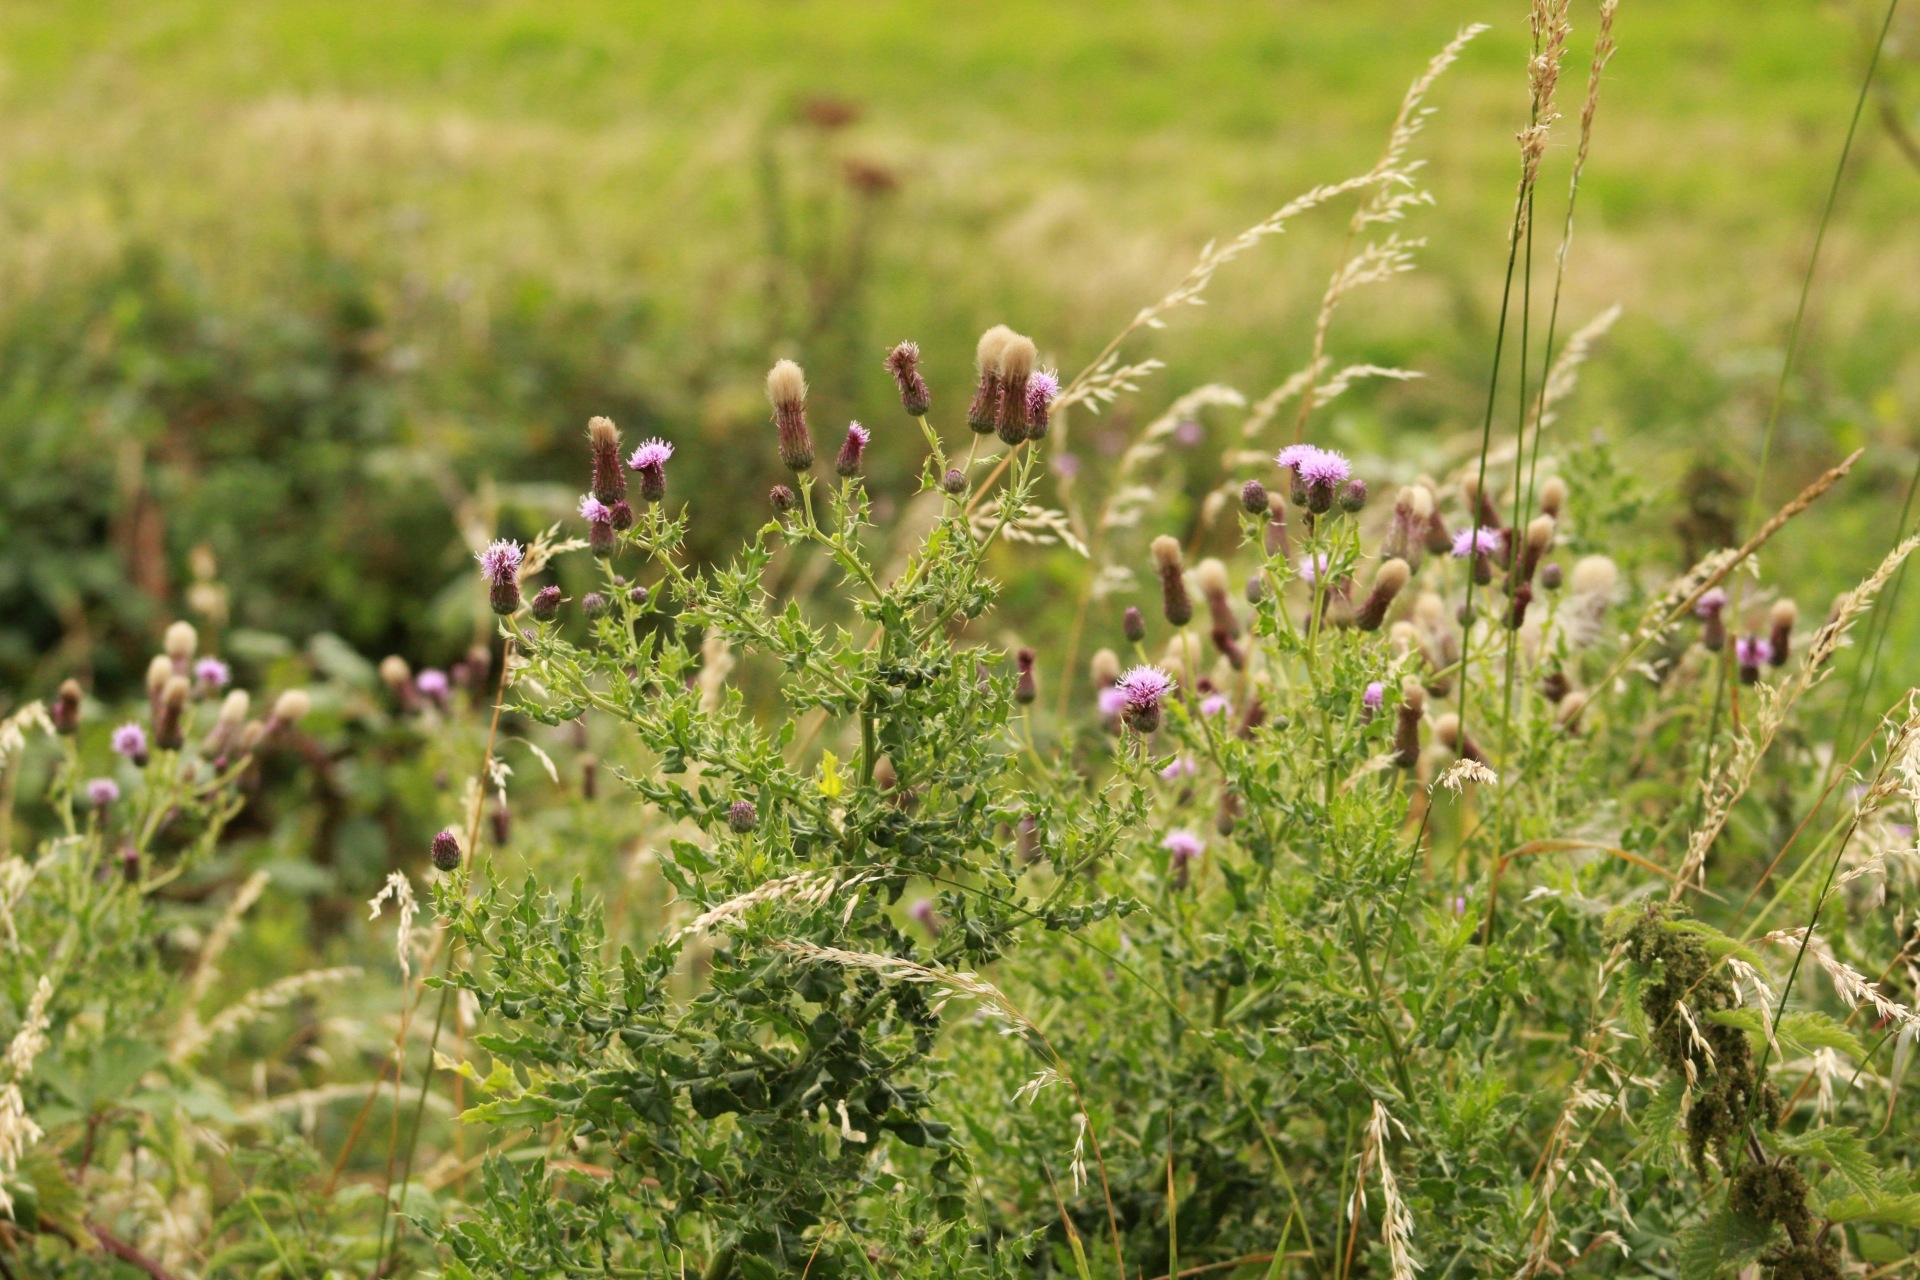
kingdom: Plantae
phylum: Tracheophyta
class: Magnoliopsida
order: Asterales
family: Asteraceae
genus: Cirsium
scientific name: Cirsium arvense
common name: Creeping thistle
